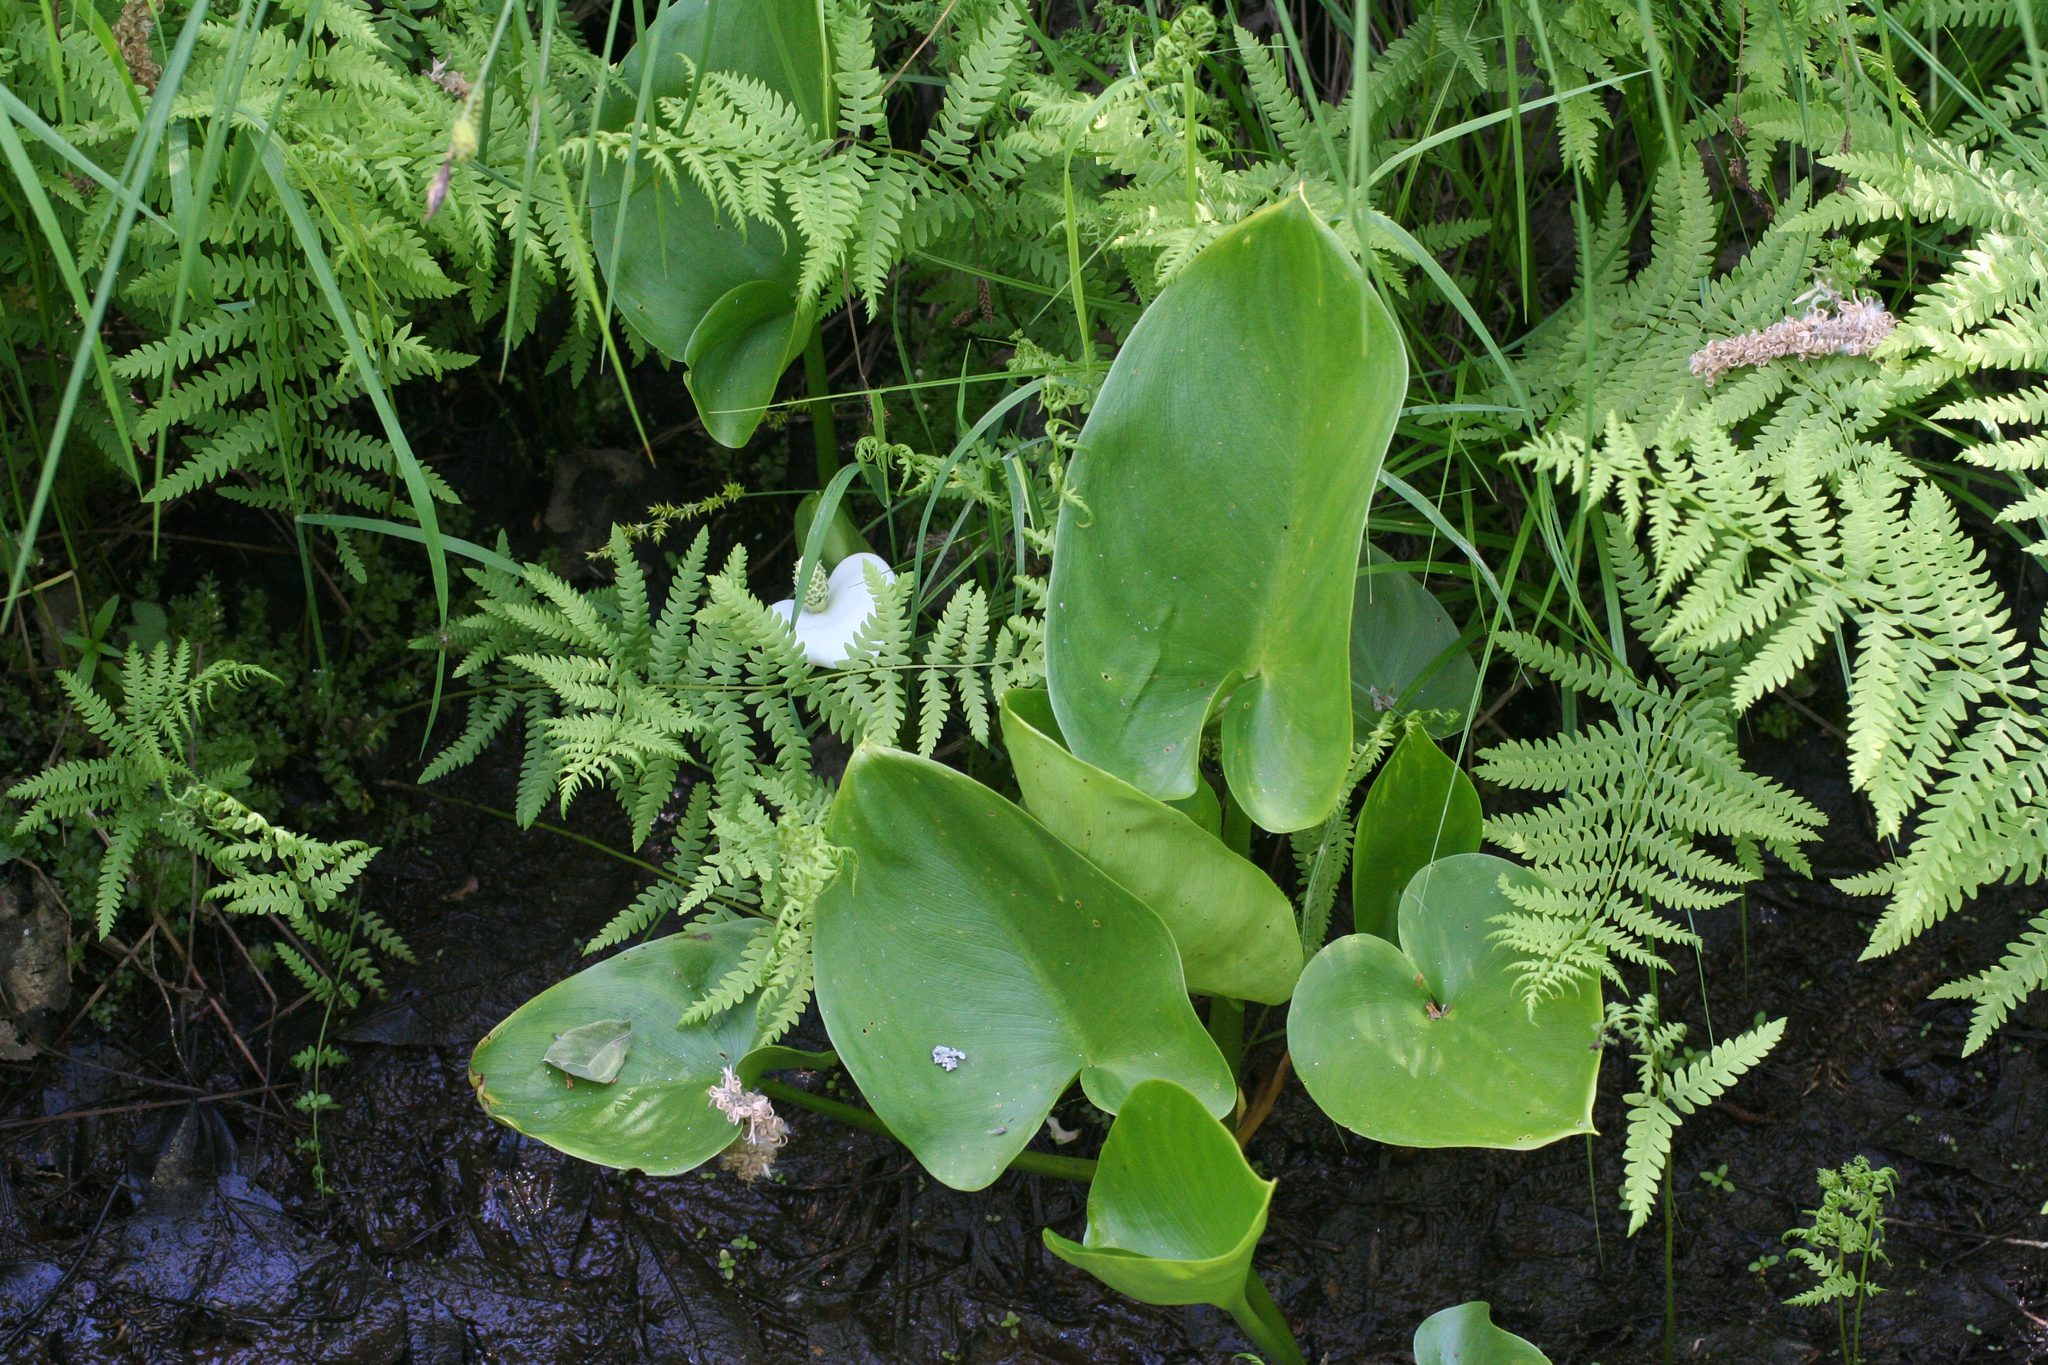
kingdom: Plantae
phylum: Tracheophyta
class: Liliopsida
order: Alismatales
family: Araceae
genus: Calla
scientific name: Calla palustris
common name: Bog arum
